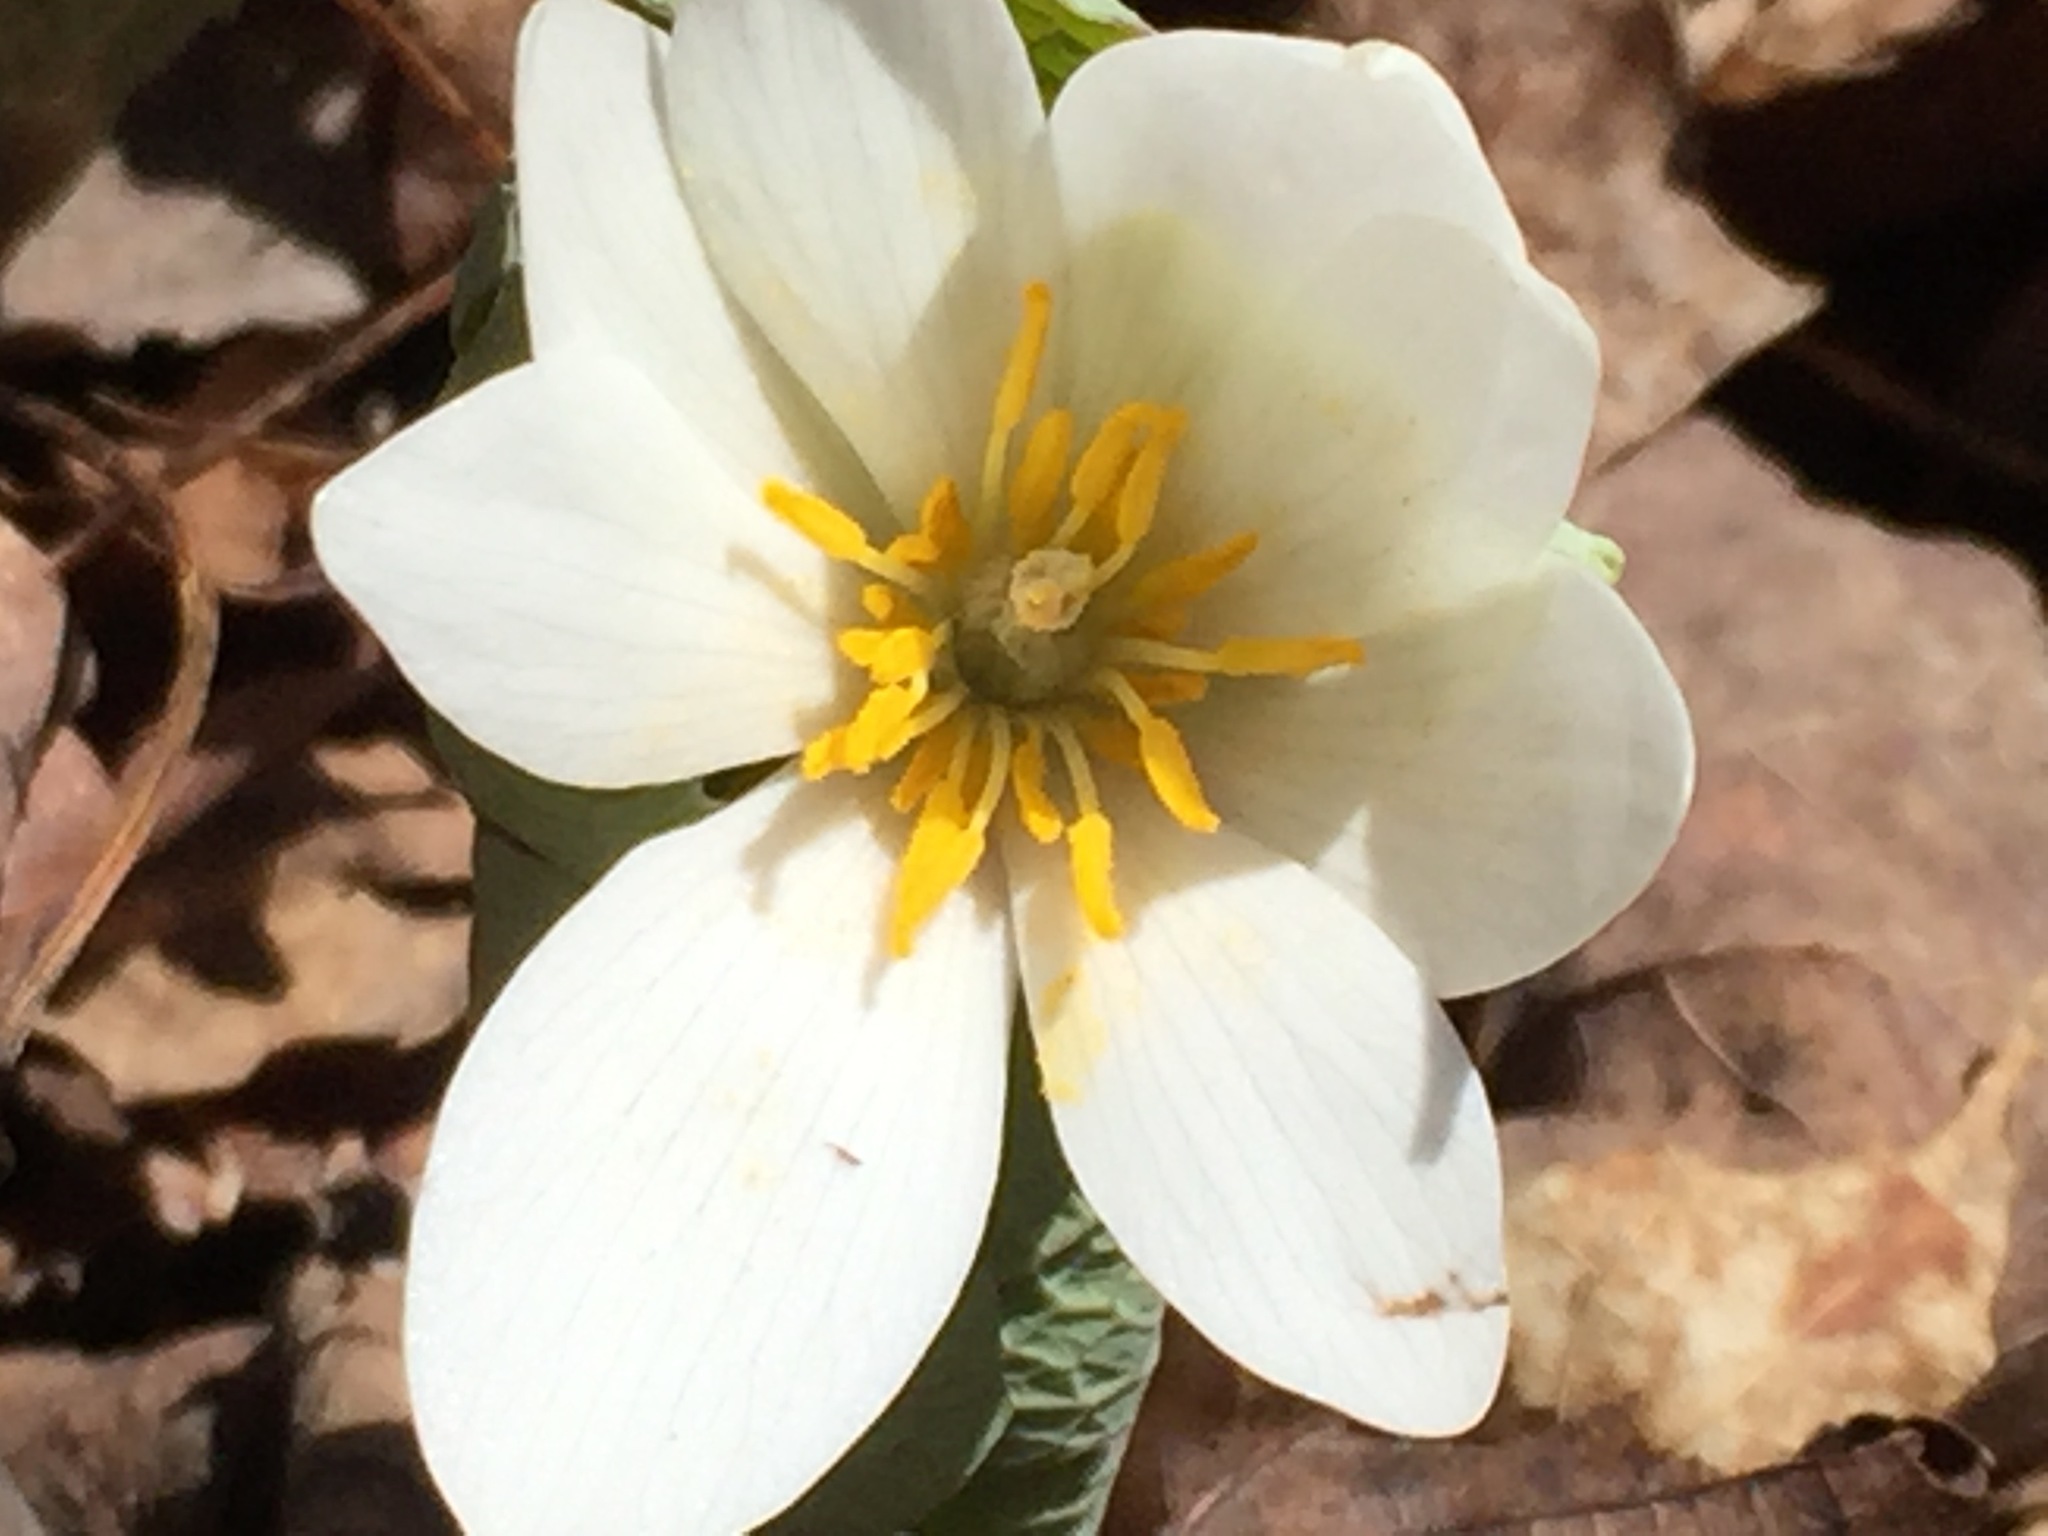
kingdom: Plantae
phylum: Tracheophyta
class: Magnoliopsida
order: Ranunculales
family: Papaveraceae
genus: Sanguinaria
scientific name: Sanguinaria canadensis
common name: Bloodroot
